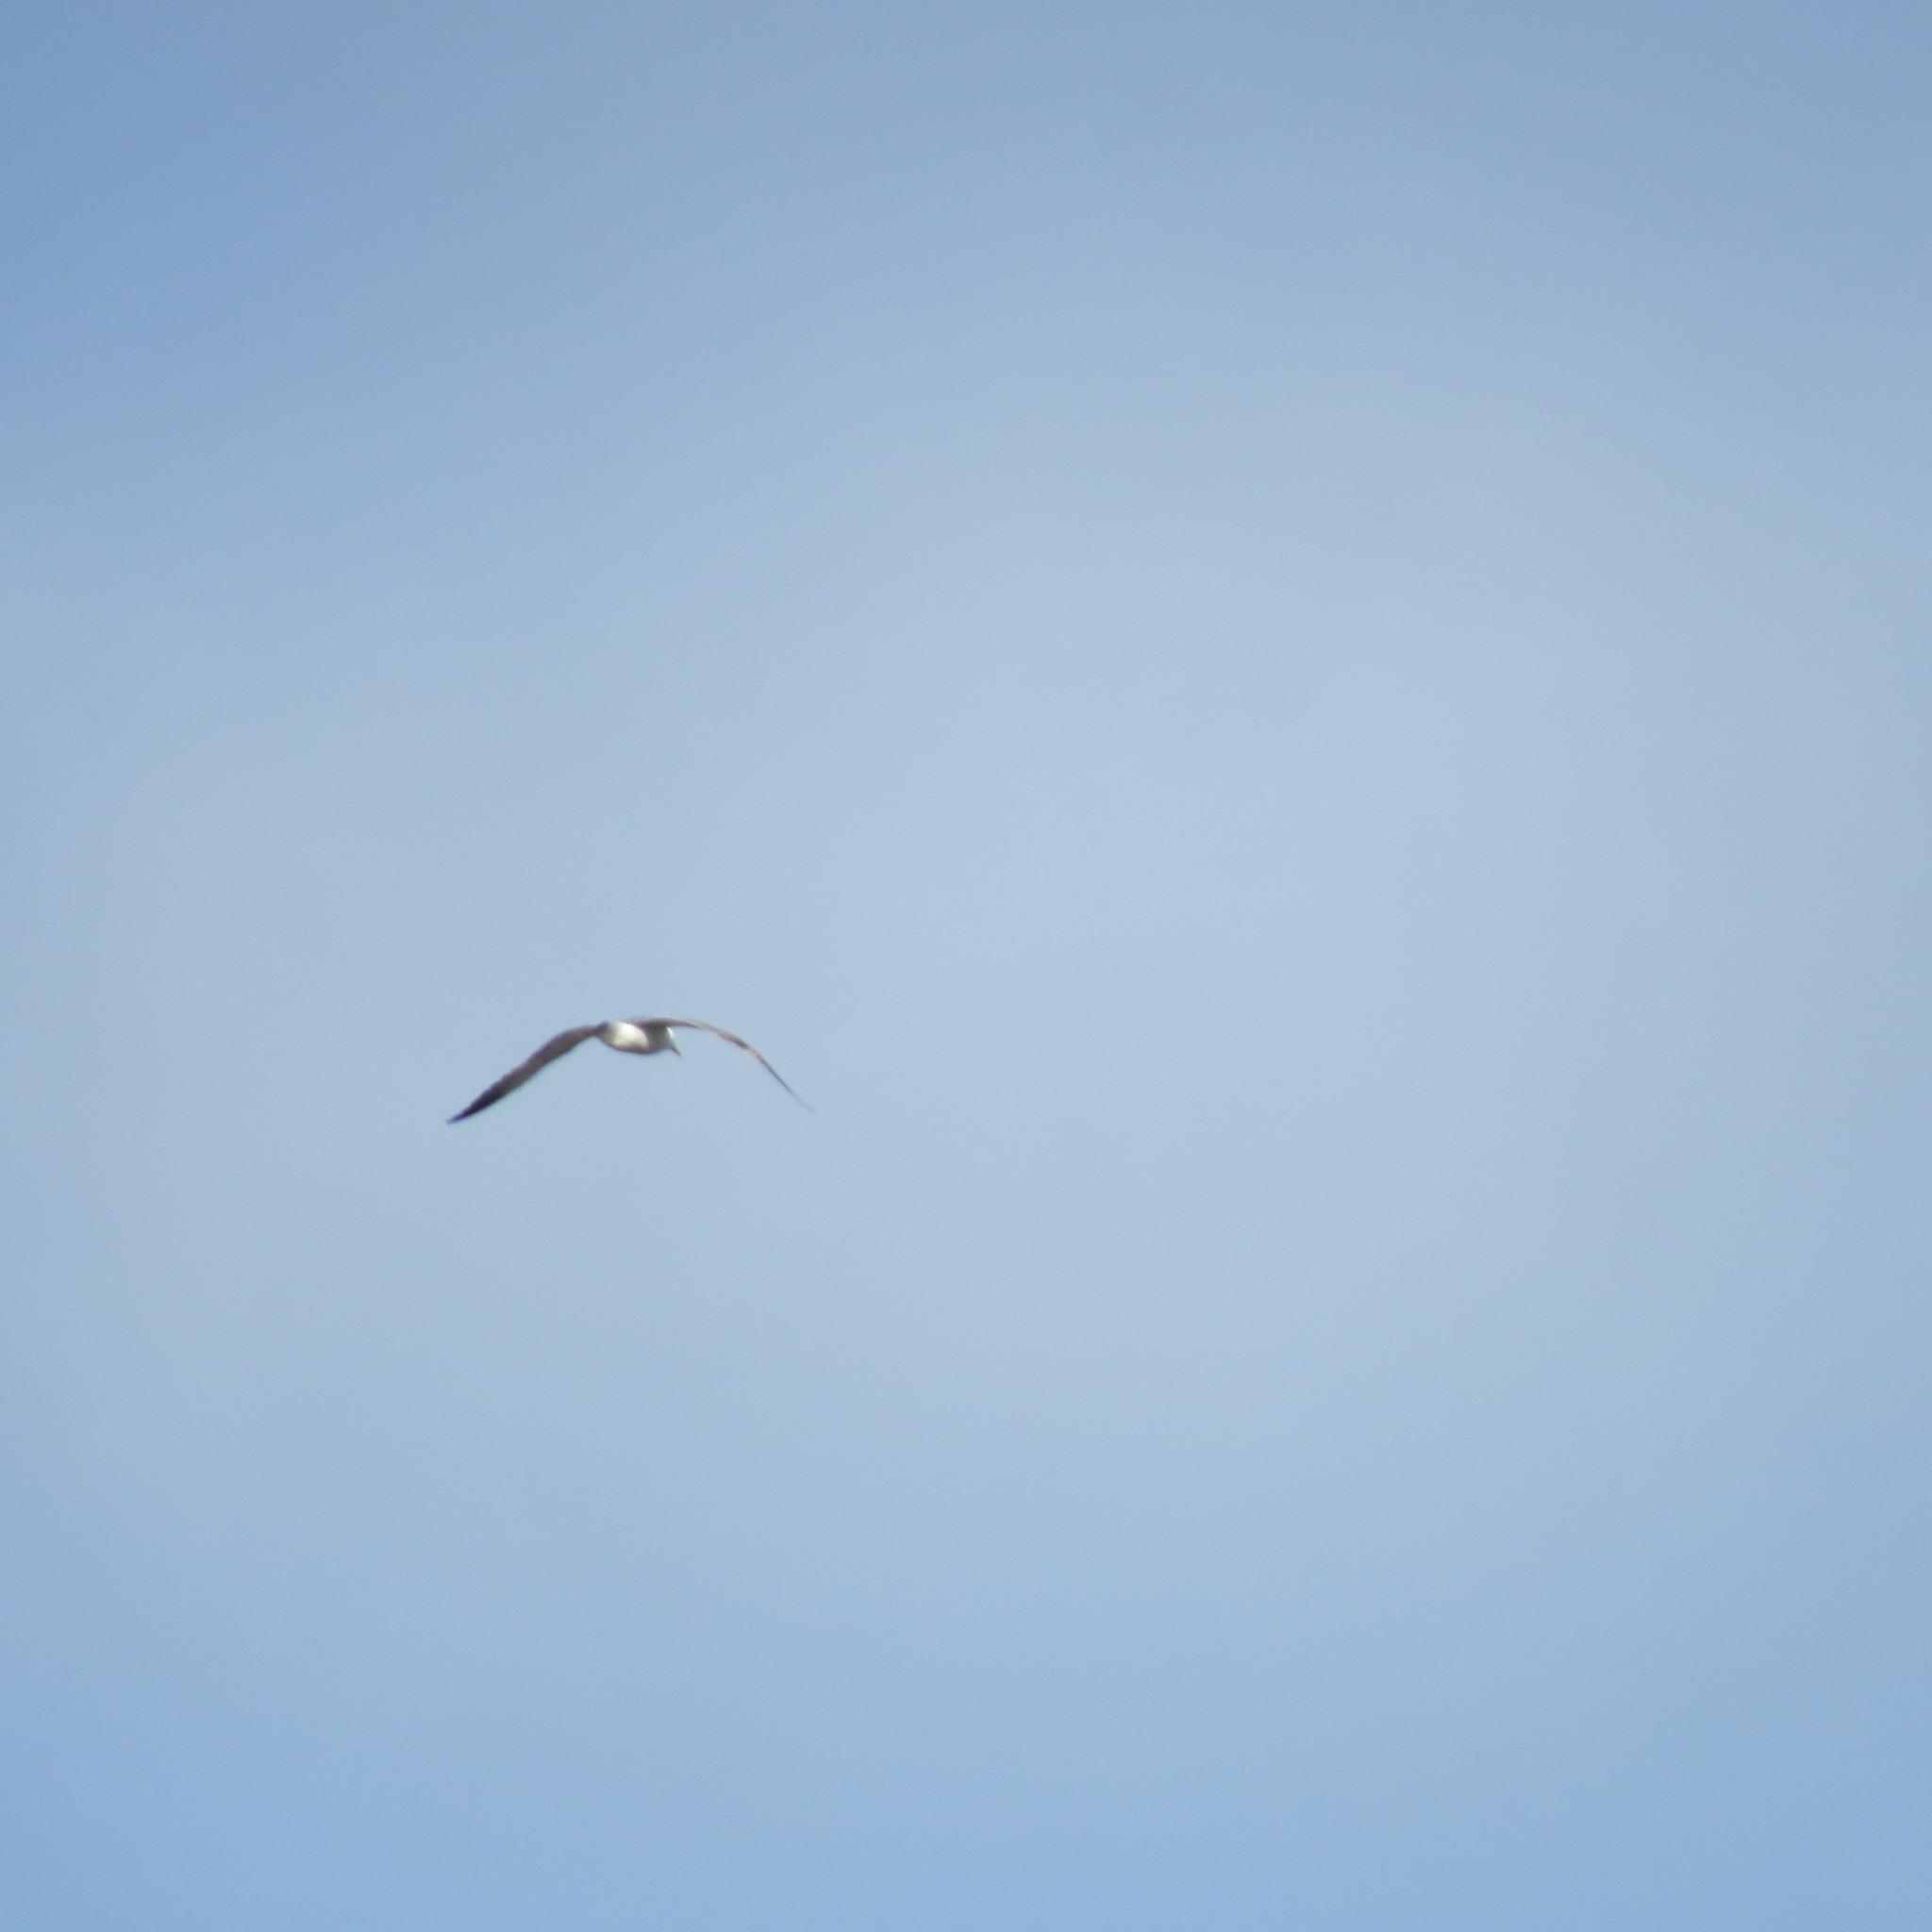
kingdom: Animalia
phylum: Chordata
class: Aves
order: Charadriiformes
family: Laridae
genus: Larus
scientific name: Larus fuscus
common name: Lesser black-backed gull
